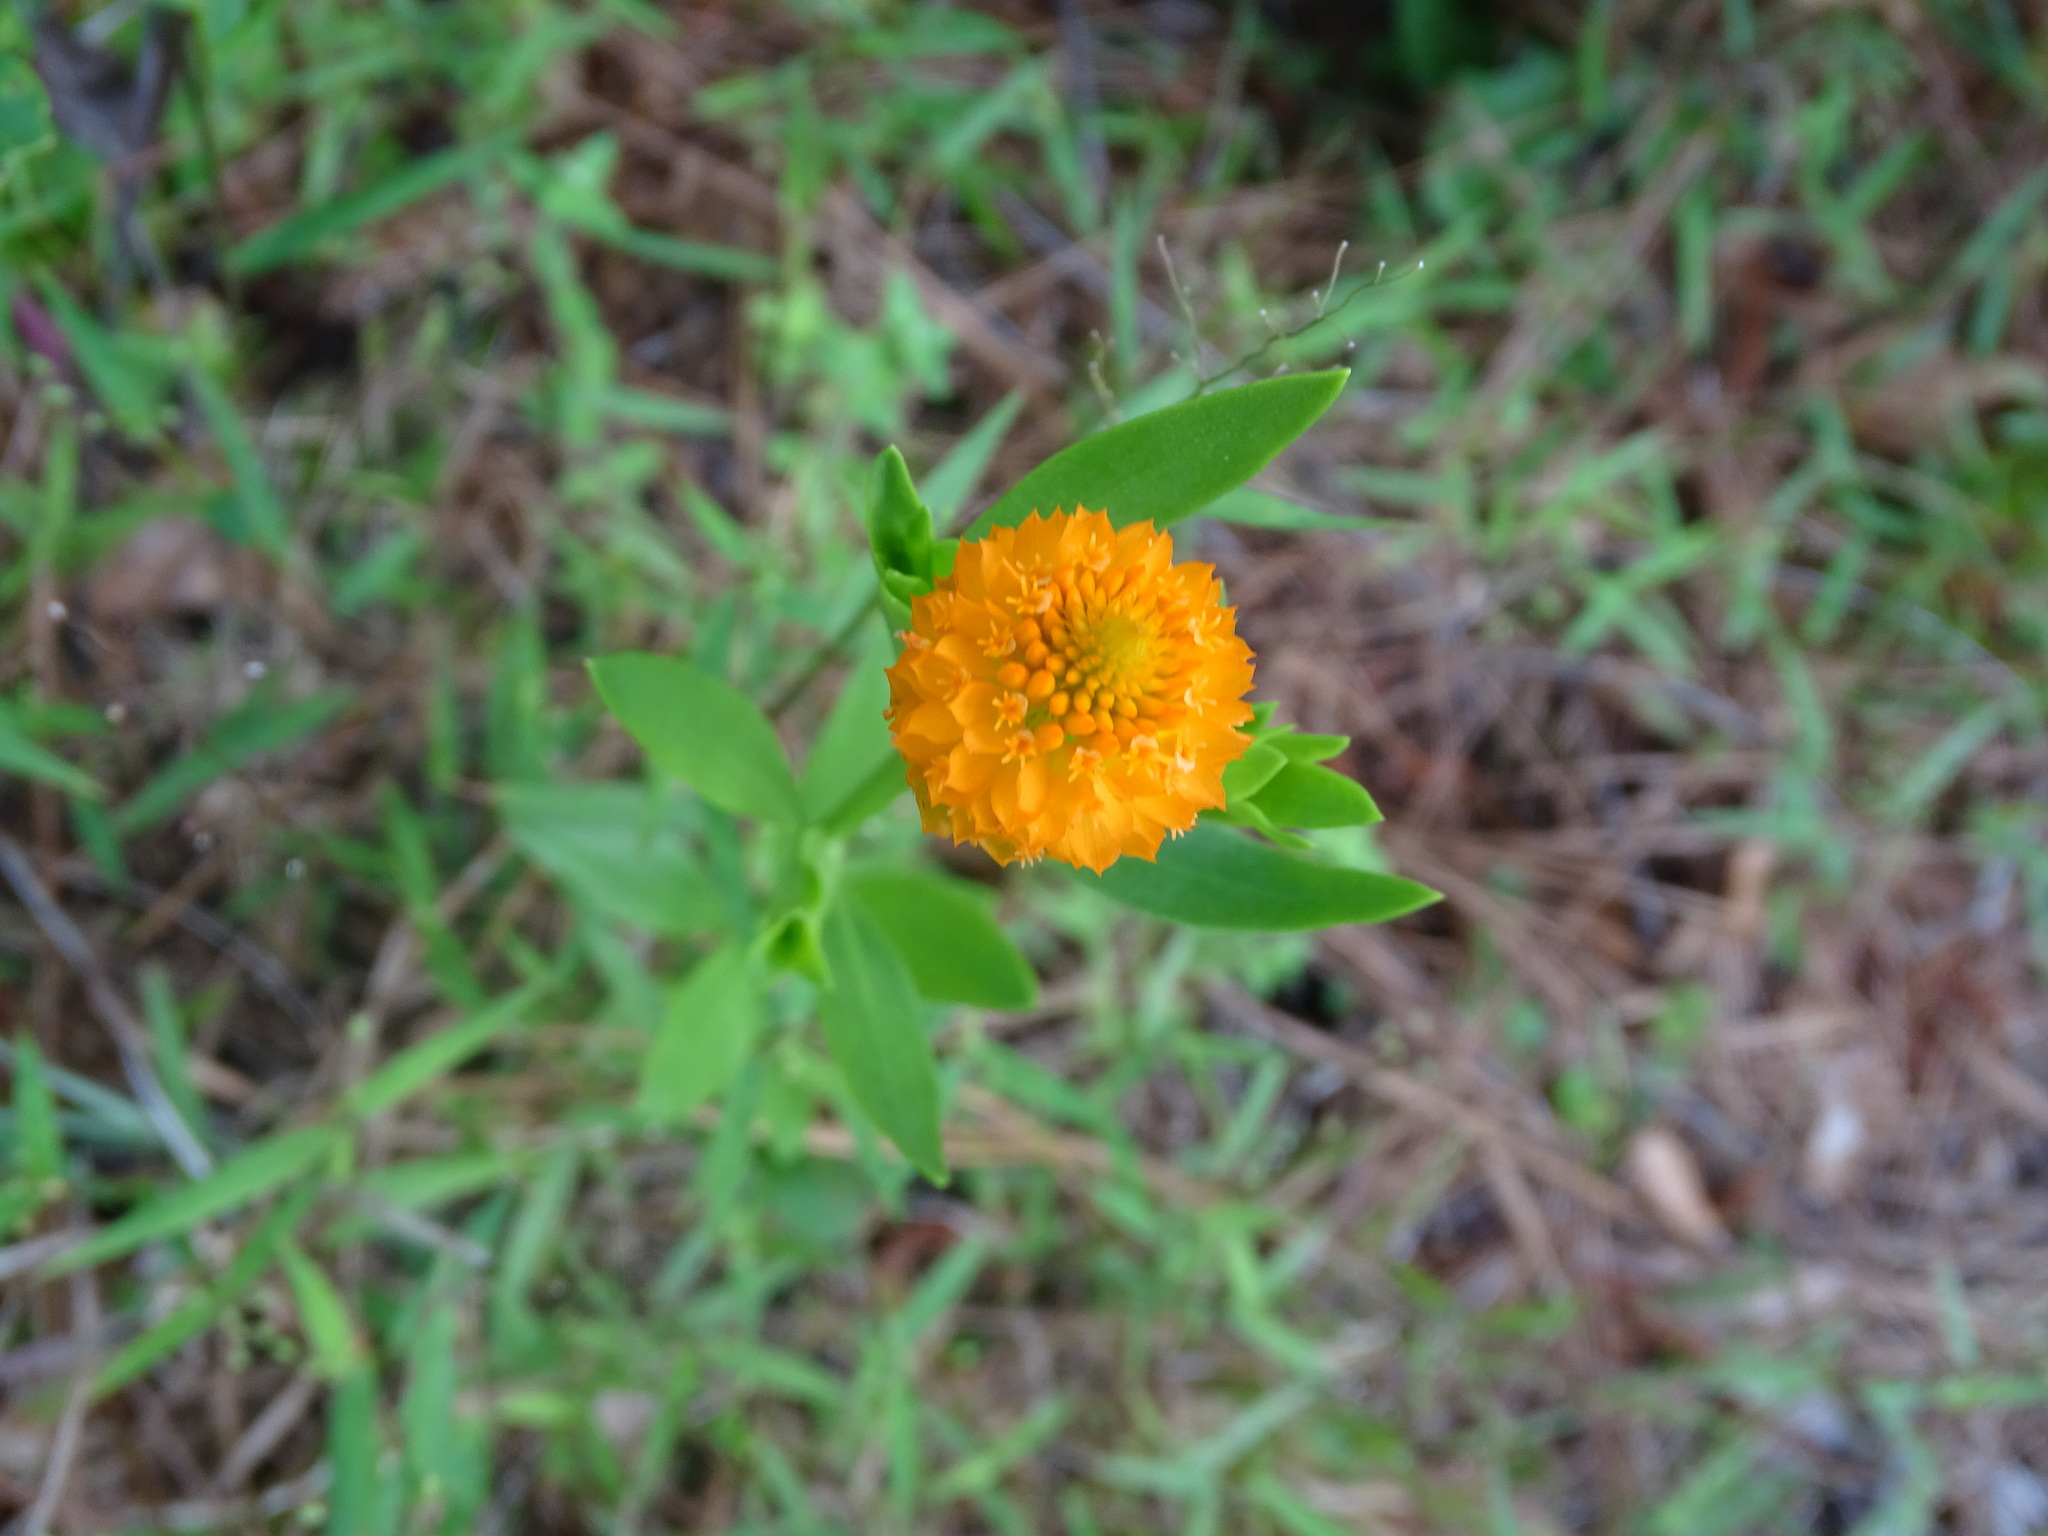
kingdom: Plantae
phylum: Tracheophyta
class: Magnoliopsida
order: Fabales
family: Polygalaceae
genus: Polygala
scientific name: Polygala lutea
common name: Orange milkwort
